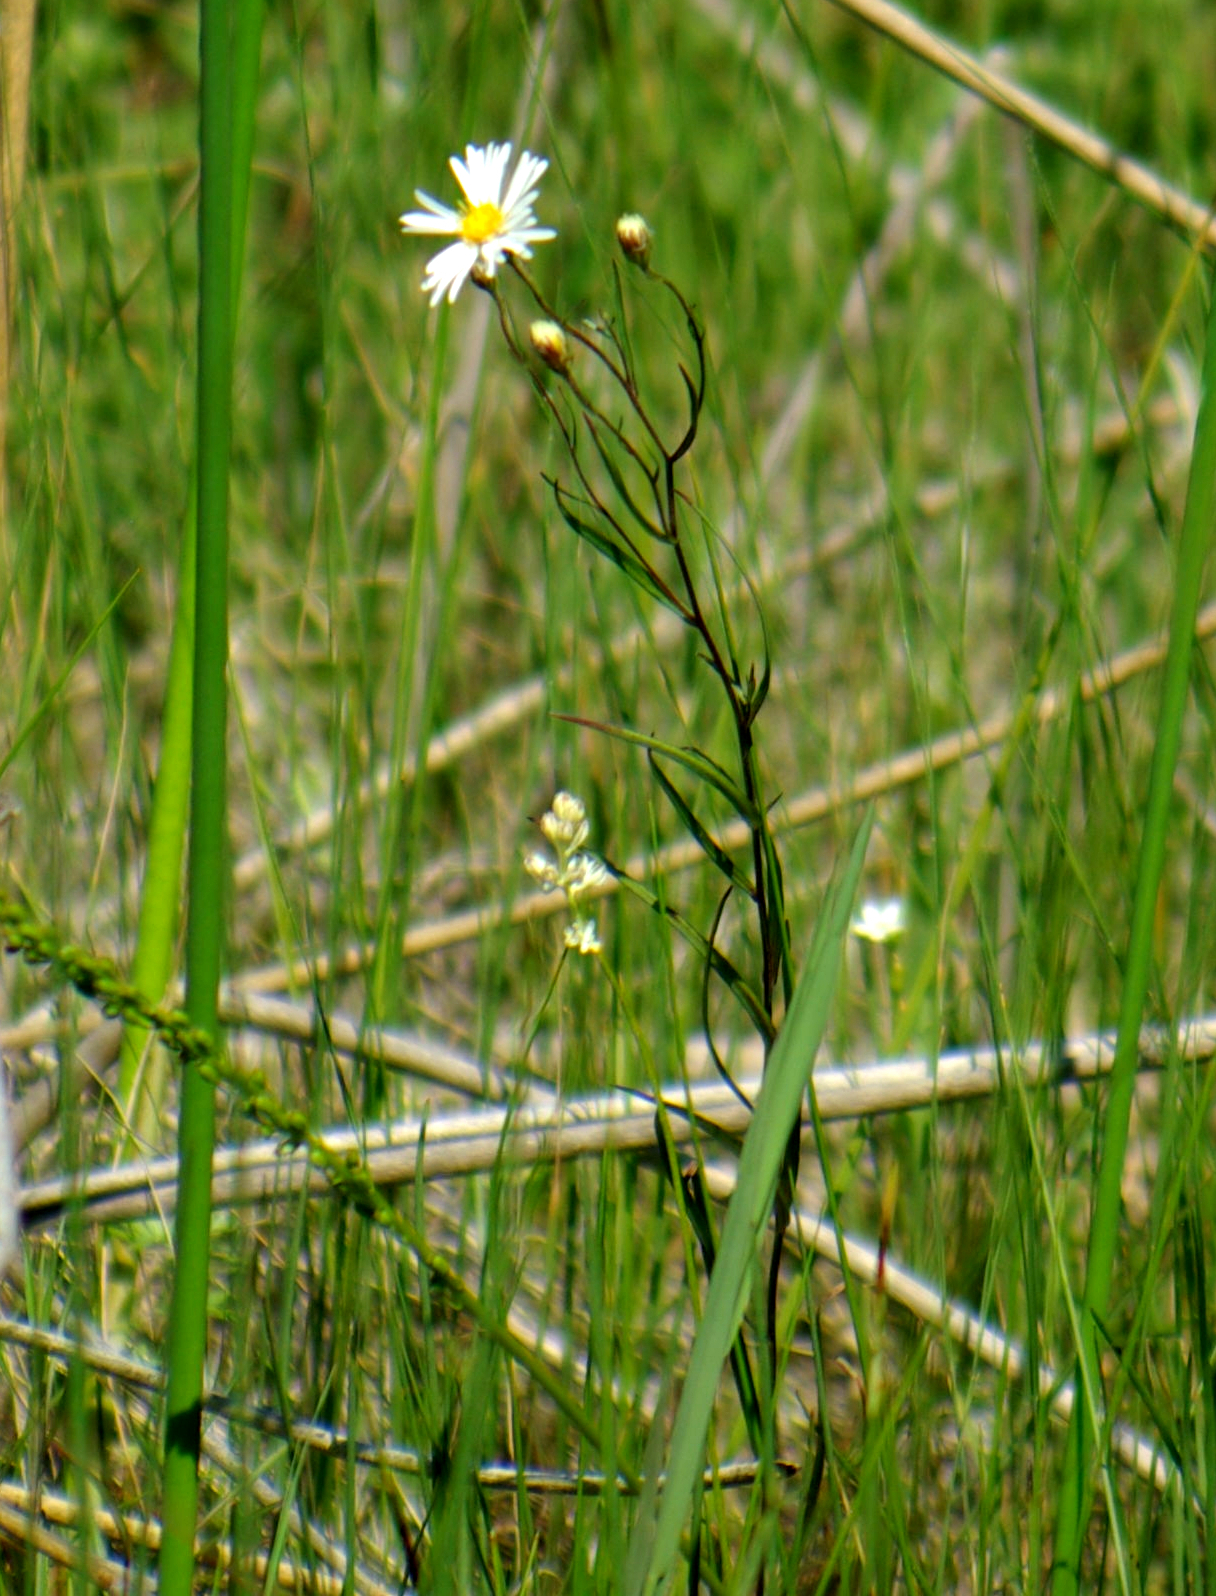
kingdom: Plantae
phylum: Tracheophyta
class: Magnoliopsida
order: Asterales
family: Asteraceae
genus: Symphyotrichum
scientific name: Symphyotrichum boreale
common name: Northern bog aster
